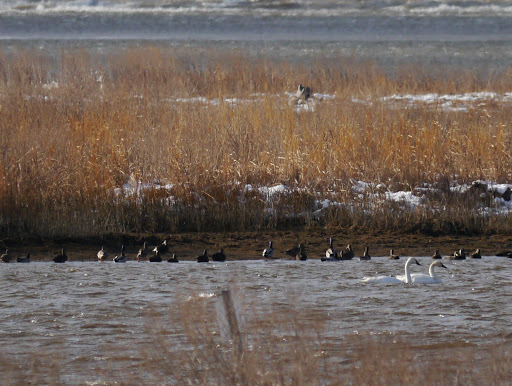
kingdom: Animalia
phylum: Chordata
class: Aves
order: Anseriformes
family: Anatidae
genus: Anas
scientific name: Anas platyrhynchos
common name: Mallard
